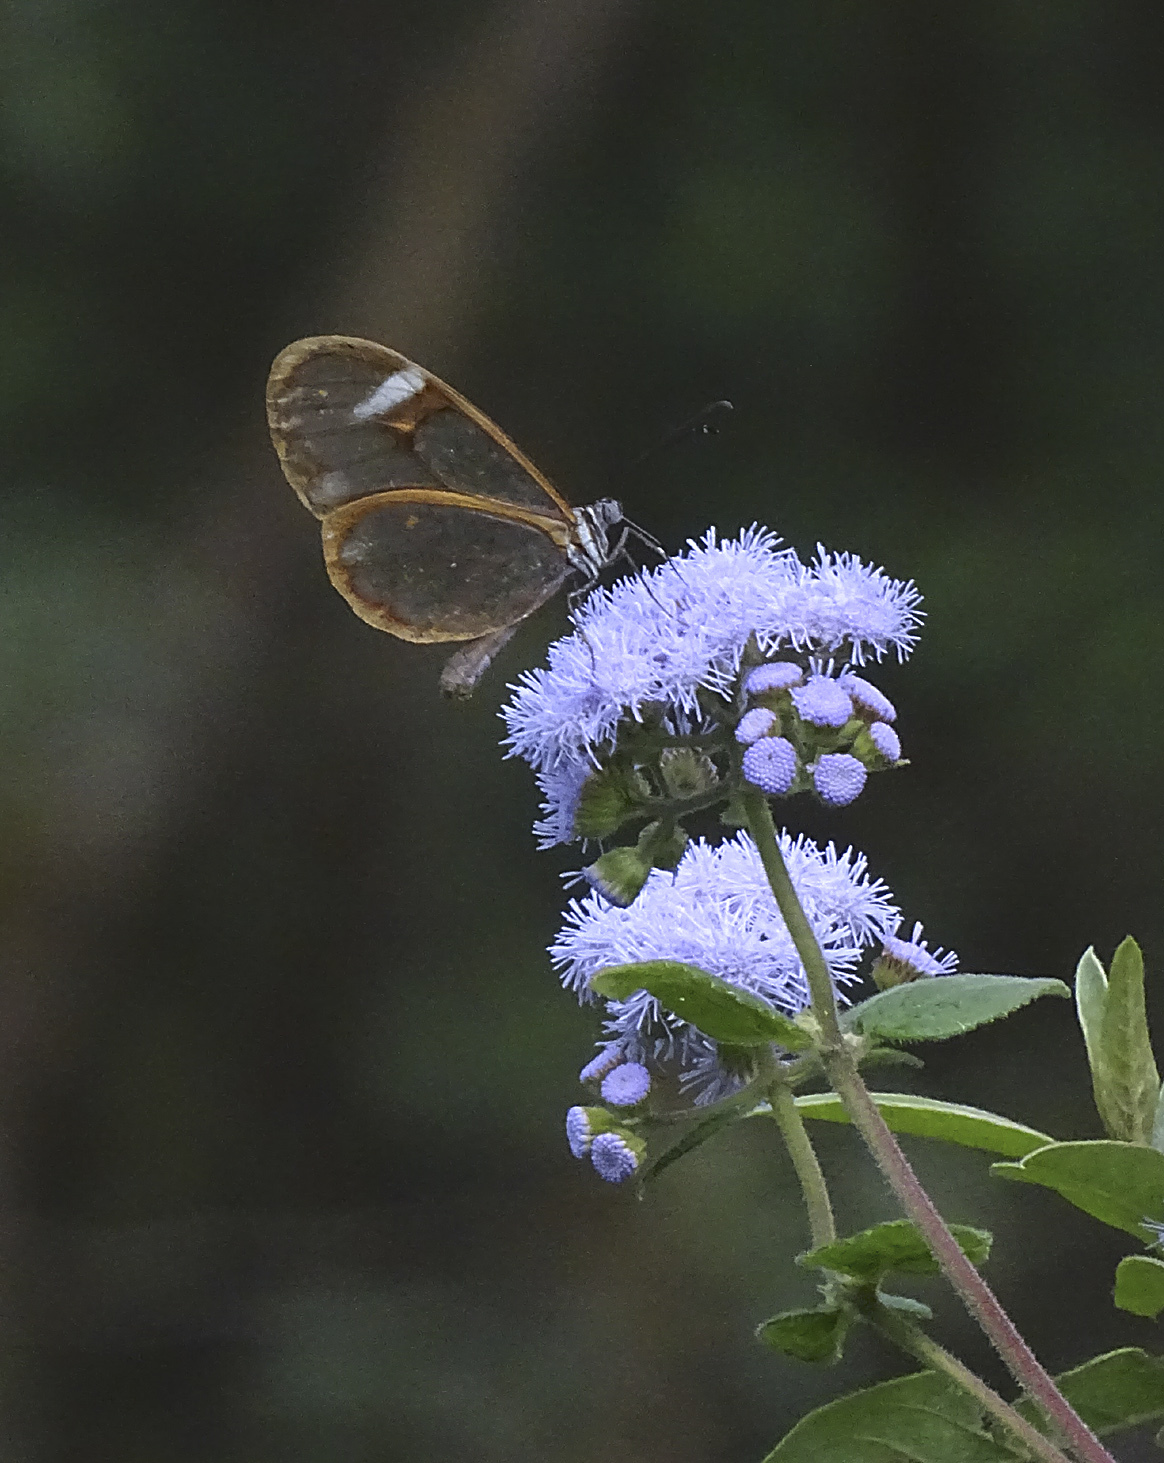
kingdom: Animalia
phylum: Arthropoda
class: Insecta
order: Lepidoptera
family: Nymphalidae
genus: Episcada
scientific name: Episcada salvinia
